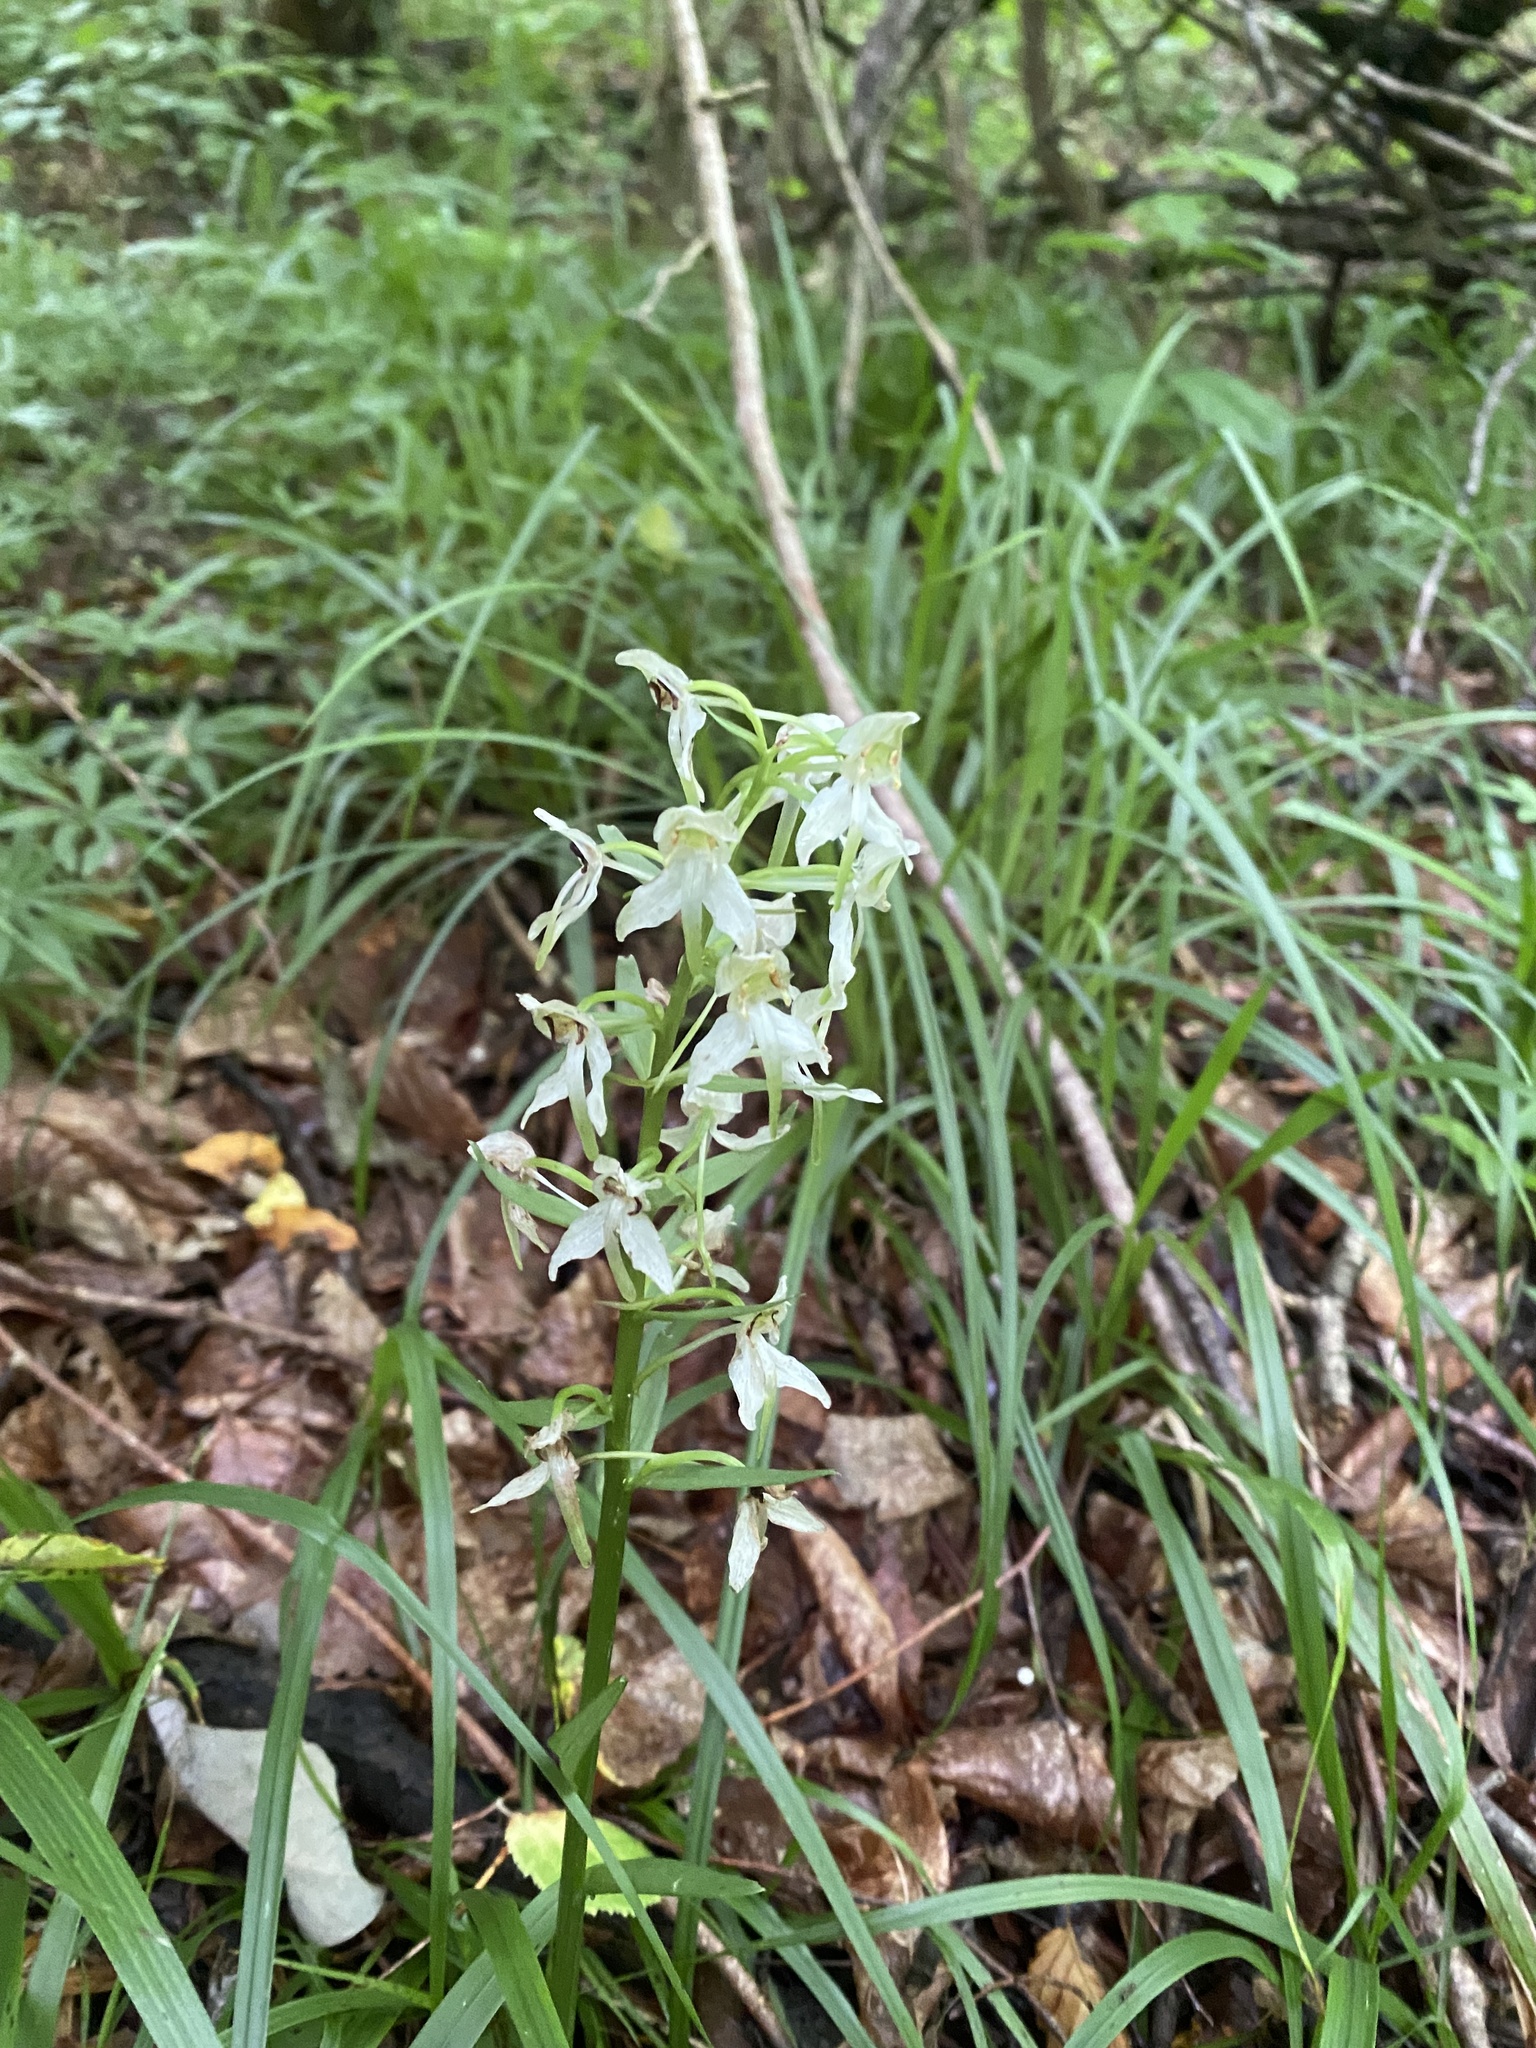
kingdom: Plantae
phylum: Tracheophyta
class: Liliopsida
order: Asparagales
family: Orchidaceae
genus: Platanthera
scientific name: Platanthera chlorantha
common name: Greater butterfly-orchid
